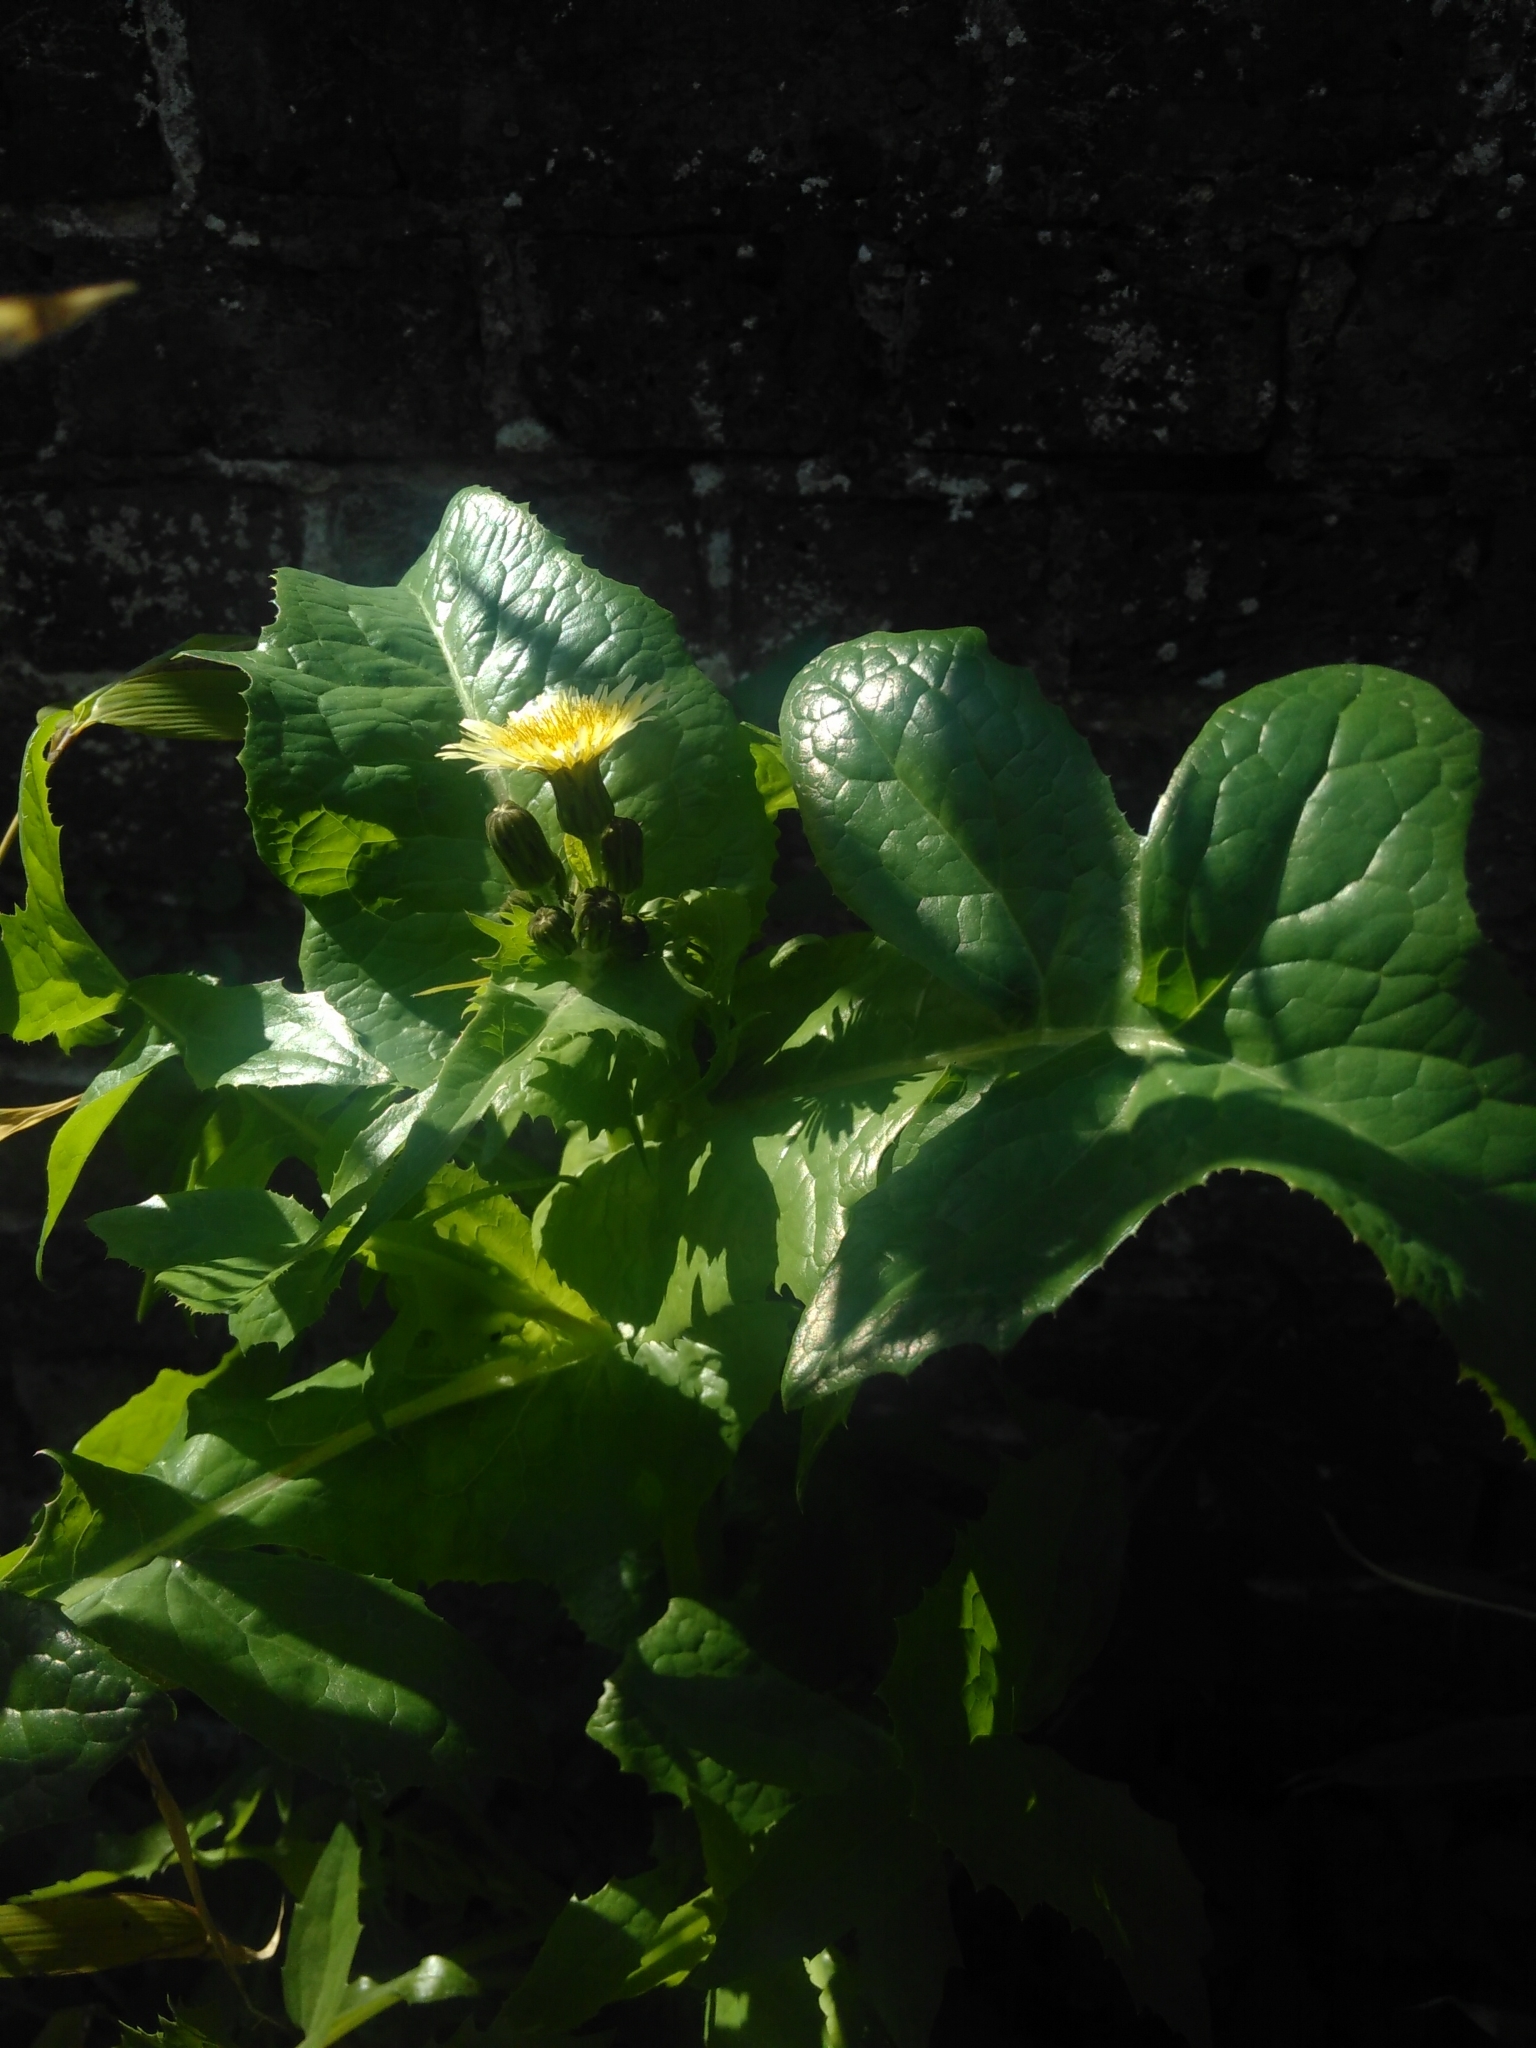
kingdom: Plantae
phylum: Tracheophyta
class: Magnoliopsida
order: Asterales
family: Asteraceae
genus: Sonchus
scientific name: Sonchus oleraceus
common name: Common sowthistle
